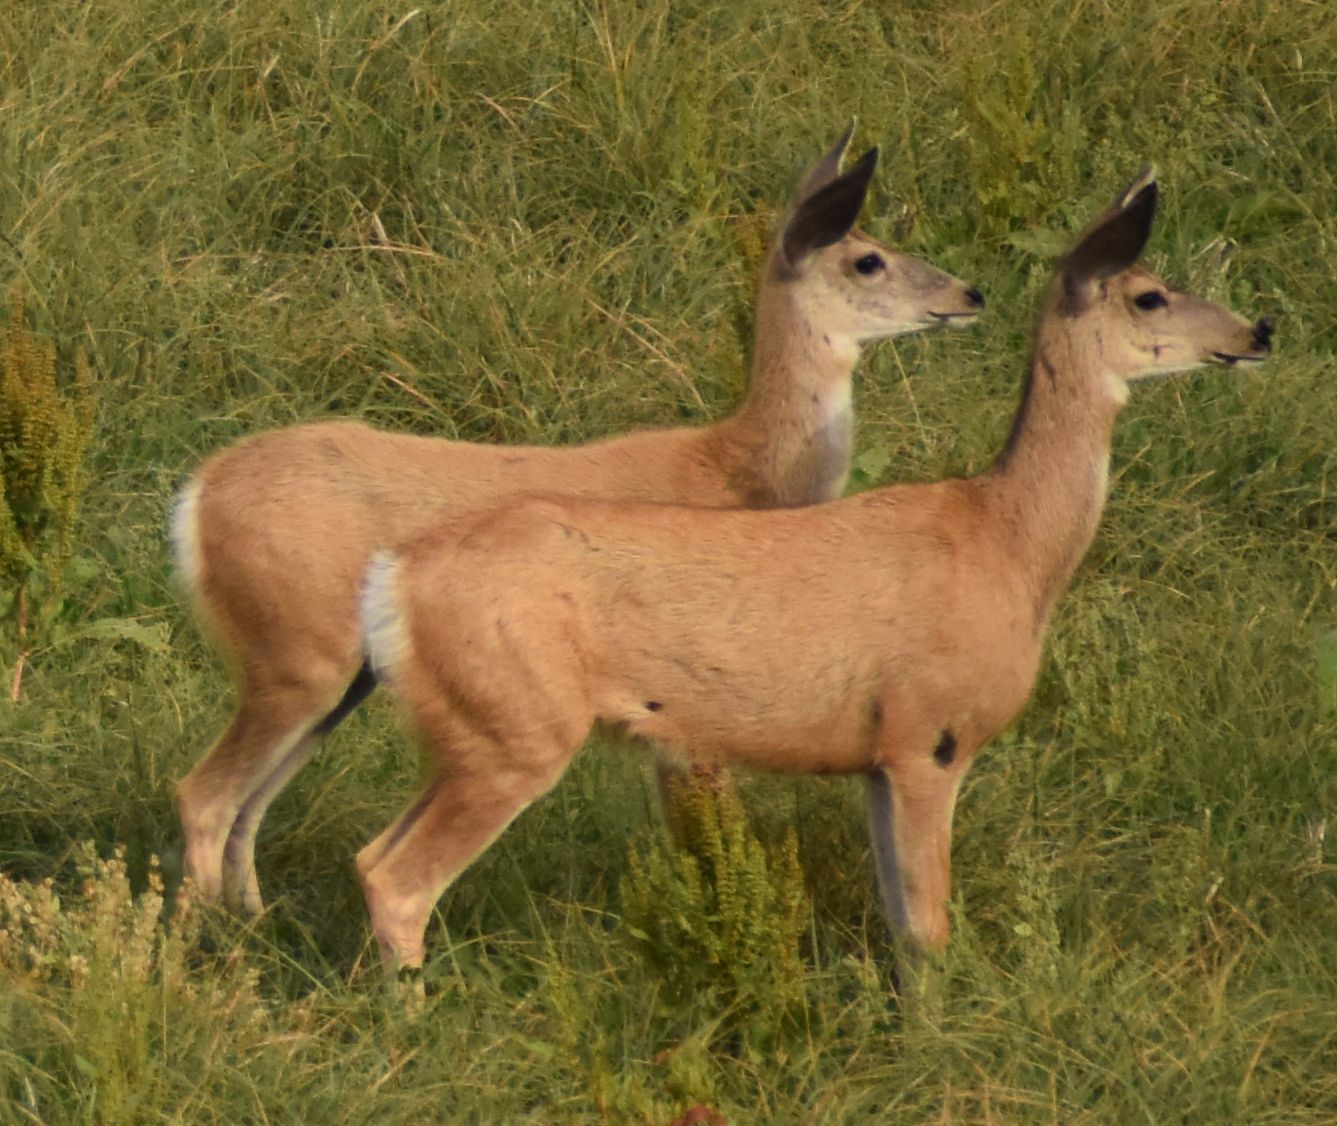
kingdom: Animalia
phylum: Chordata
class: Mammalia
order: Artiodactyla
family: Cervidae
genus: Odocoileus
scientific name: Odocoileus hemionus
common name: Mule deer
